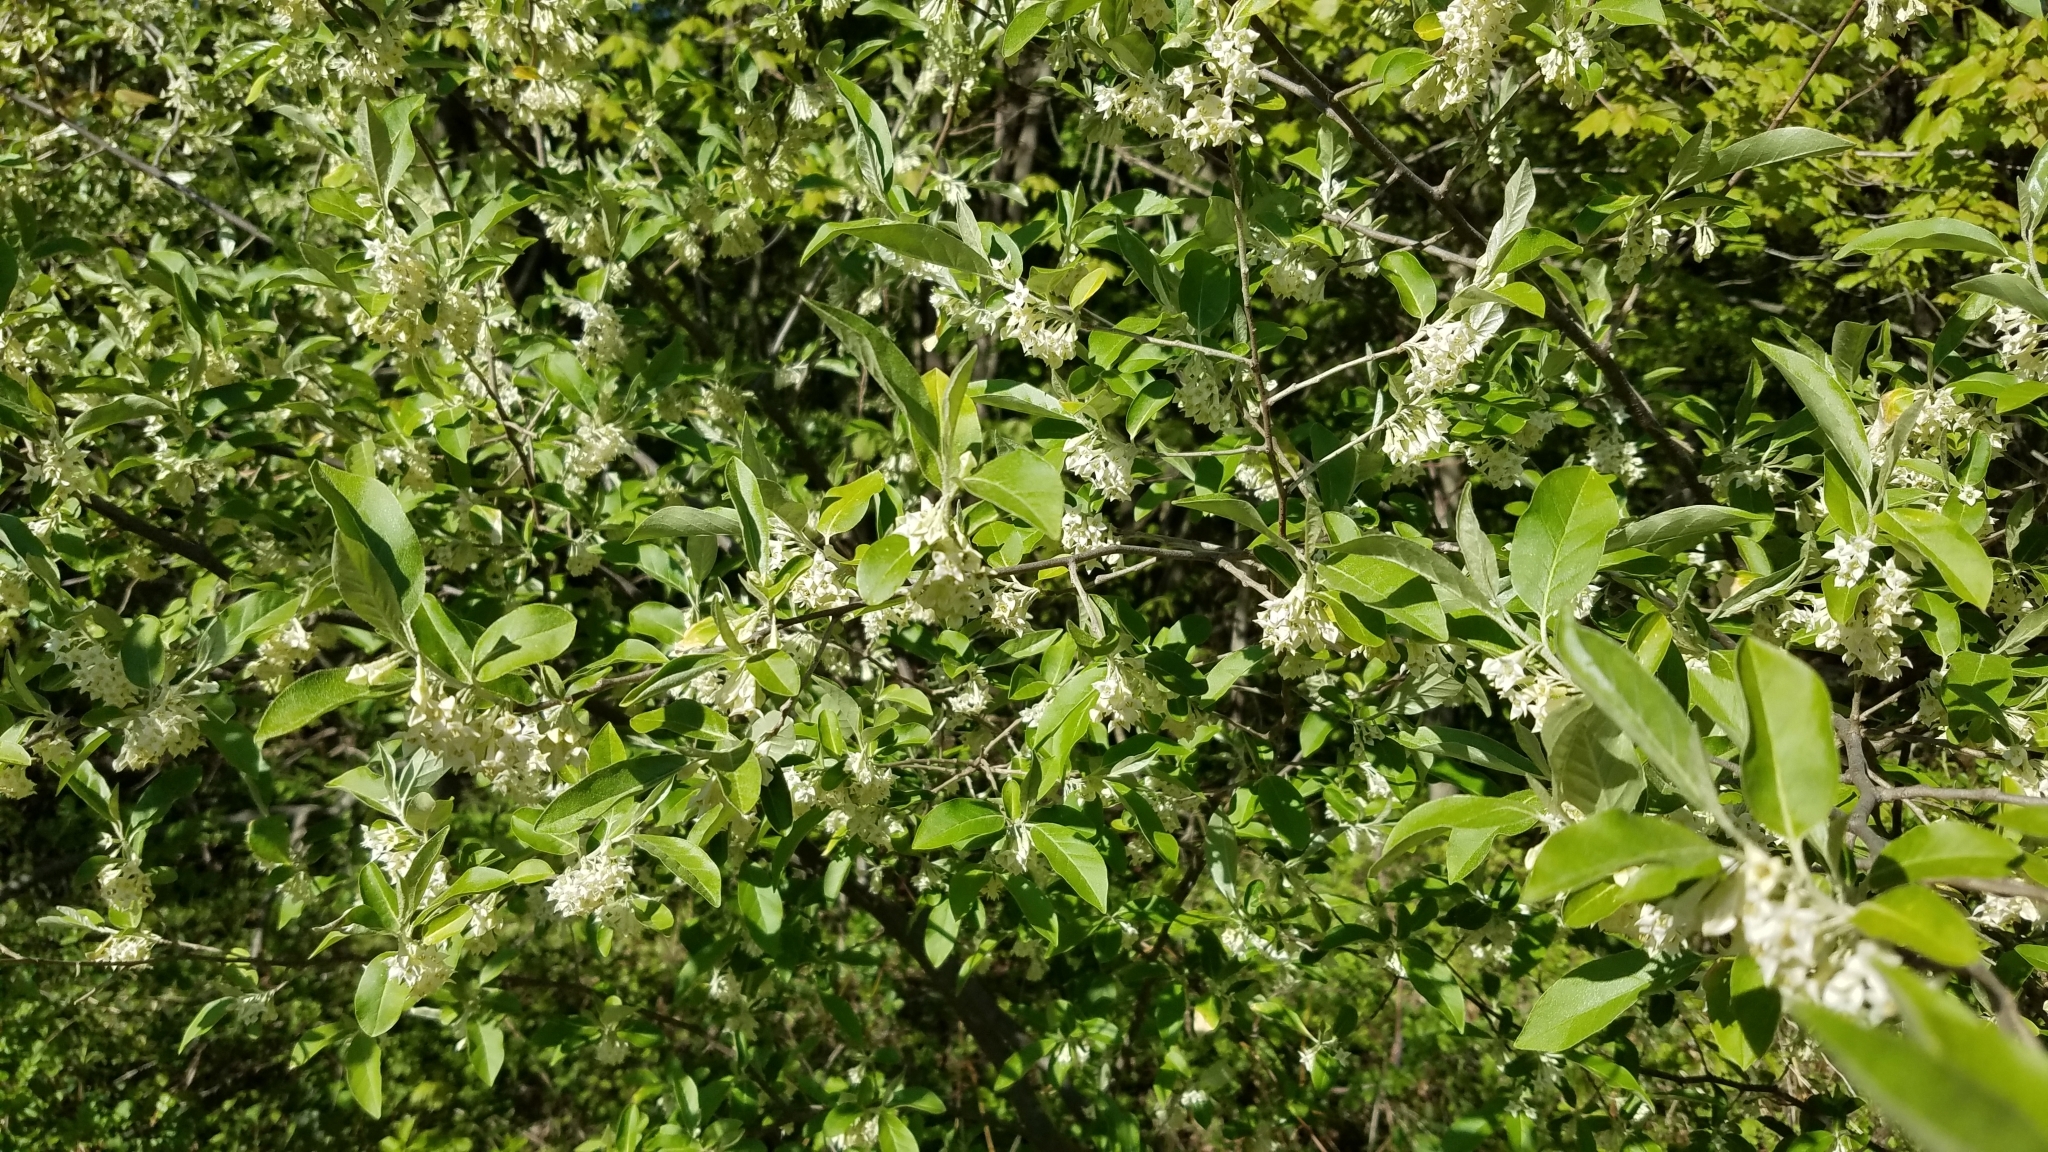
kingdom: Plantae
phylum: Tracheophyta
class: Magnoliopsida
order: Rosales
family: Elaeagnaceae
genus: Elaeagnus
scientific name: Elaeagnus umbellata
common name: Autumn olive
